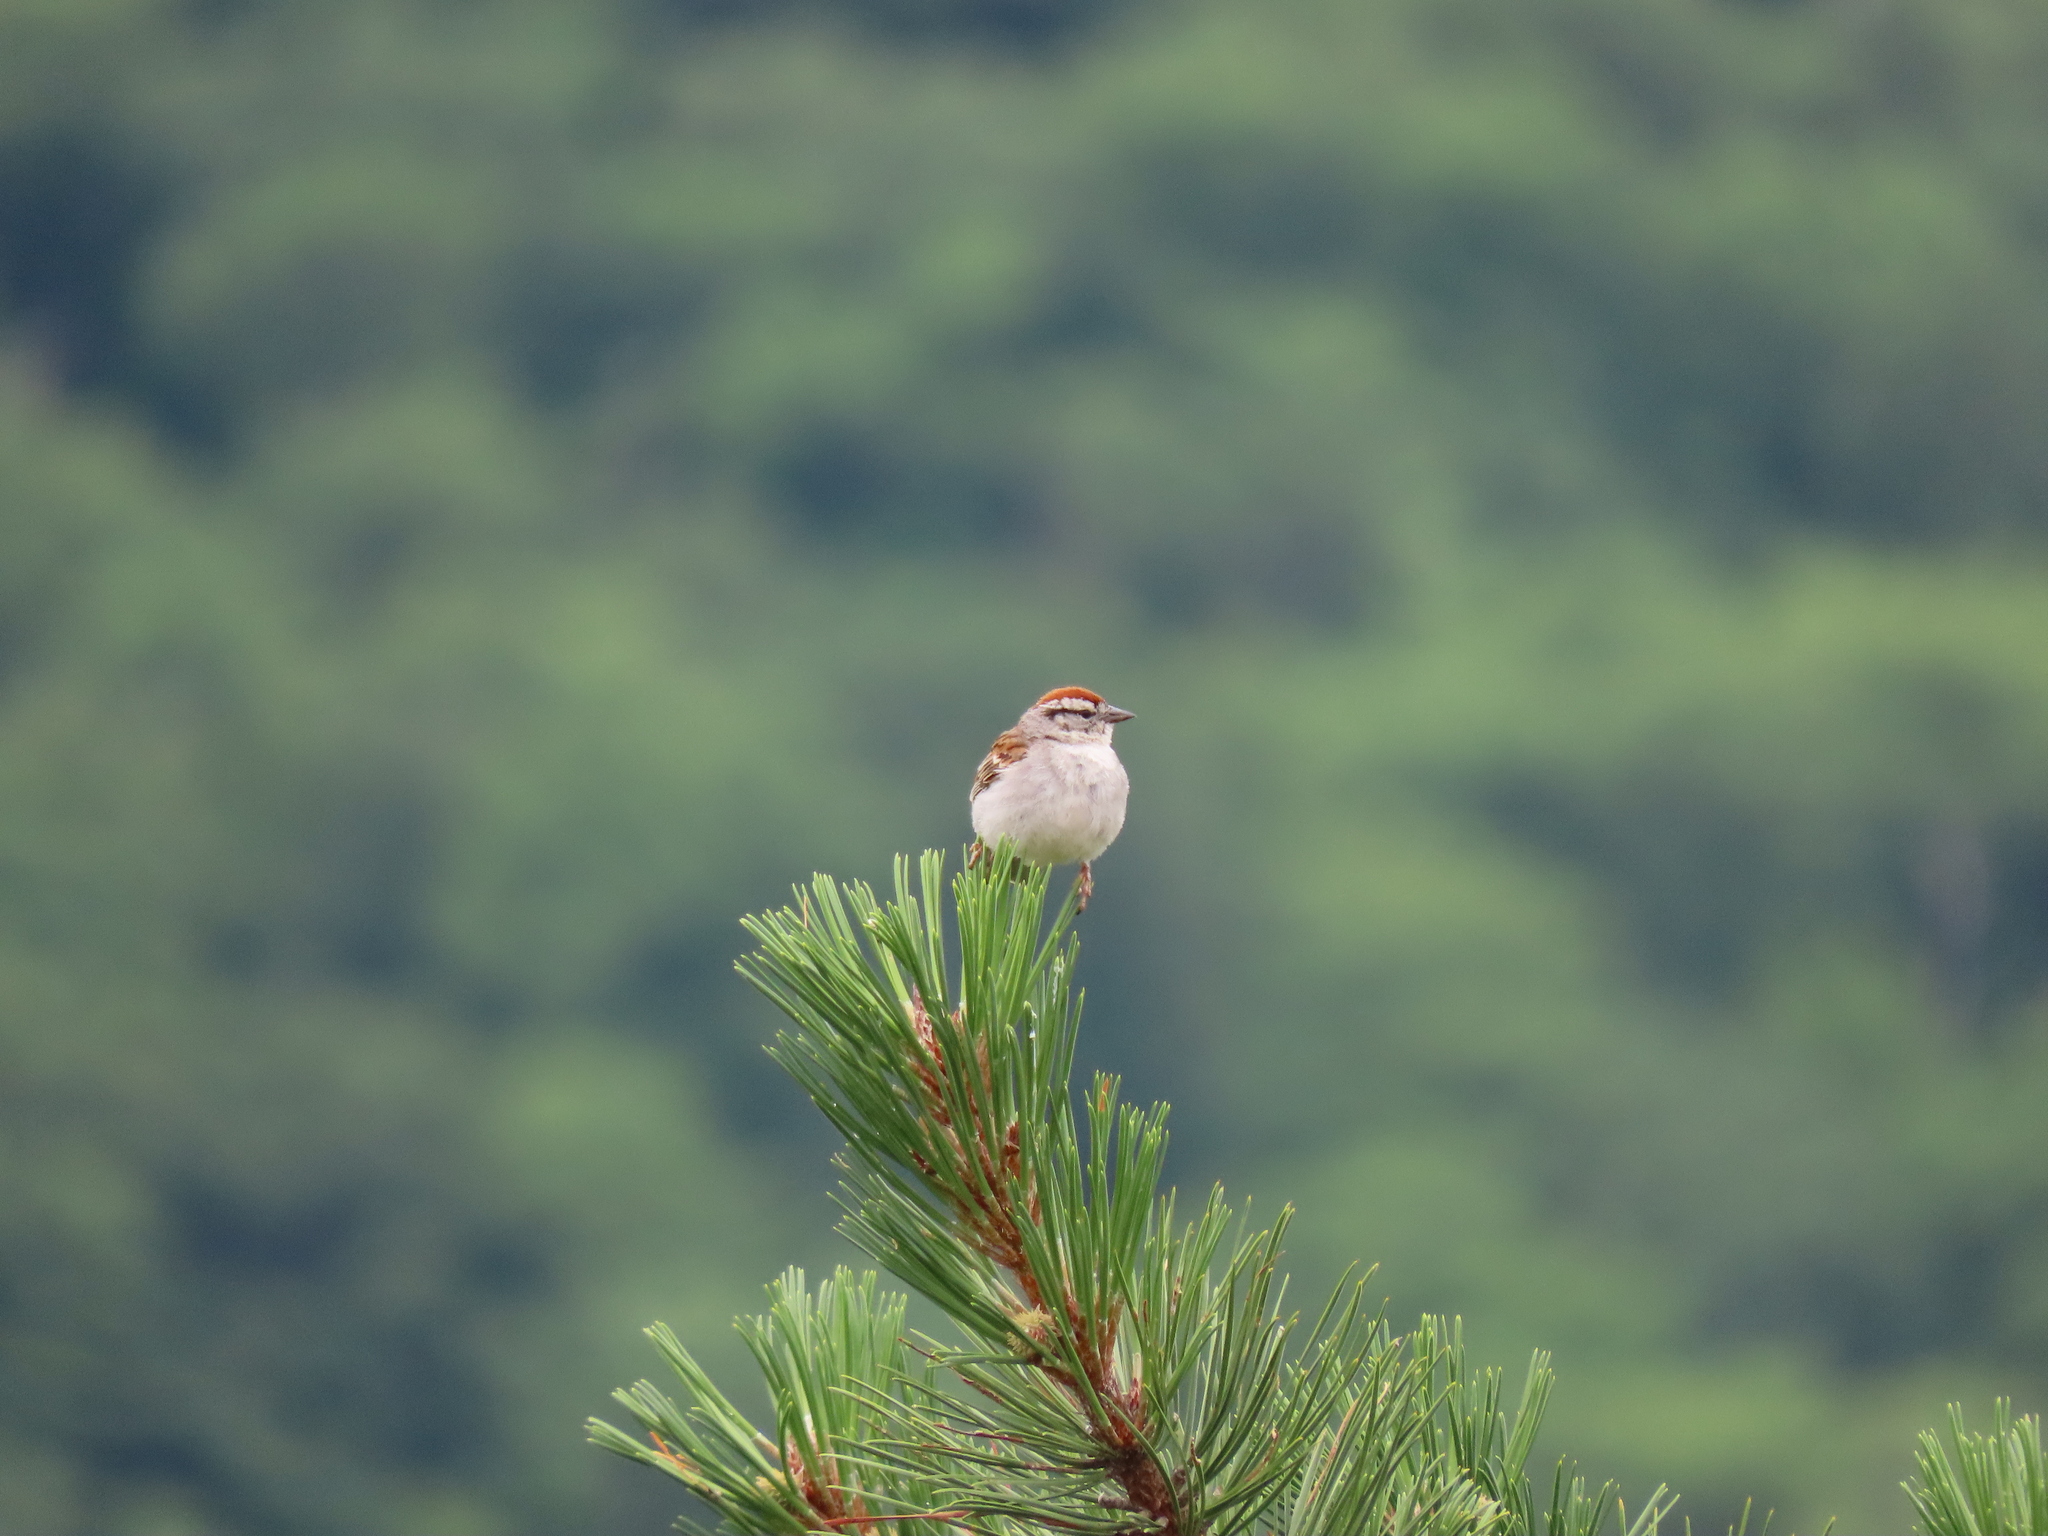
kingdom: Animalia
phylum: Chordata
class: Aves
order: Passeriformes
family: Passerellidae
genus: Spizella
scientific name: Spizella passerina
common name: Chipping sparrow
